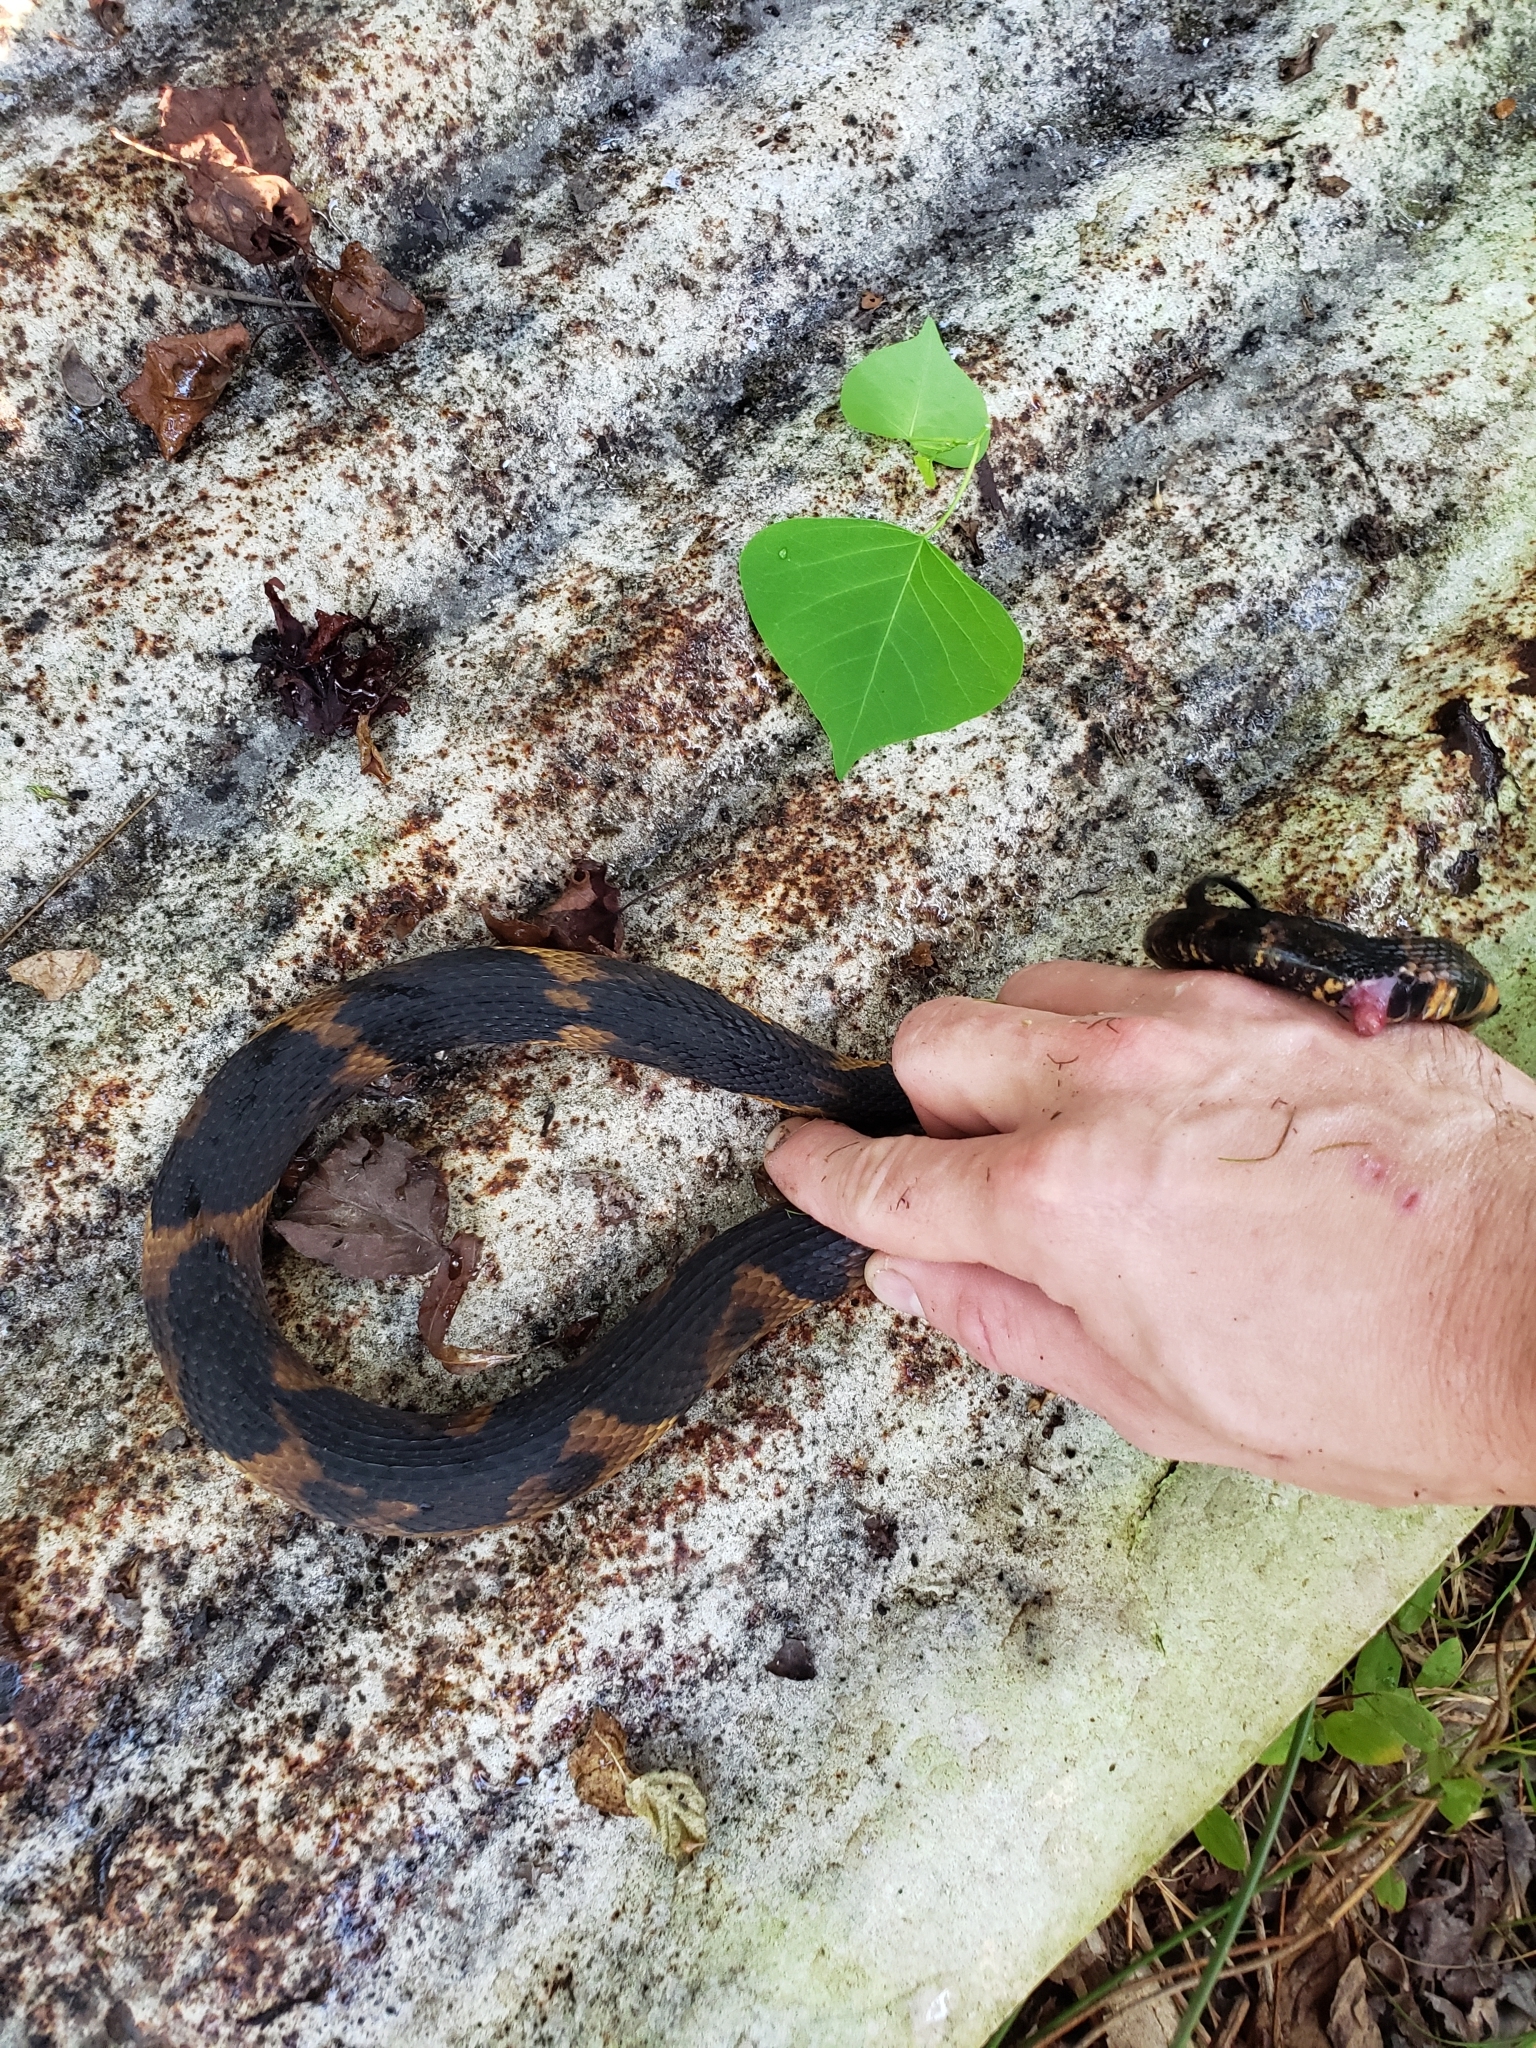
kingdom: Animalia
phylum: Chordata
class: Squamata
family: Colubridae
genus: Nerodia
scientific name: Nerodia fasciata
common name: Southern water snake
